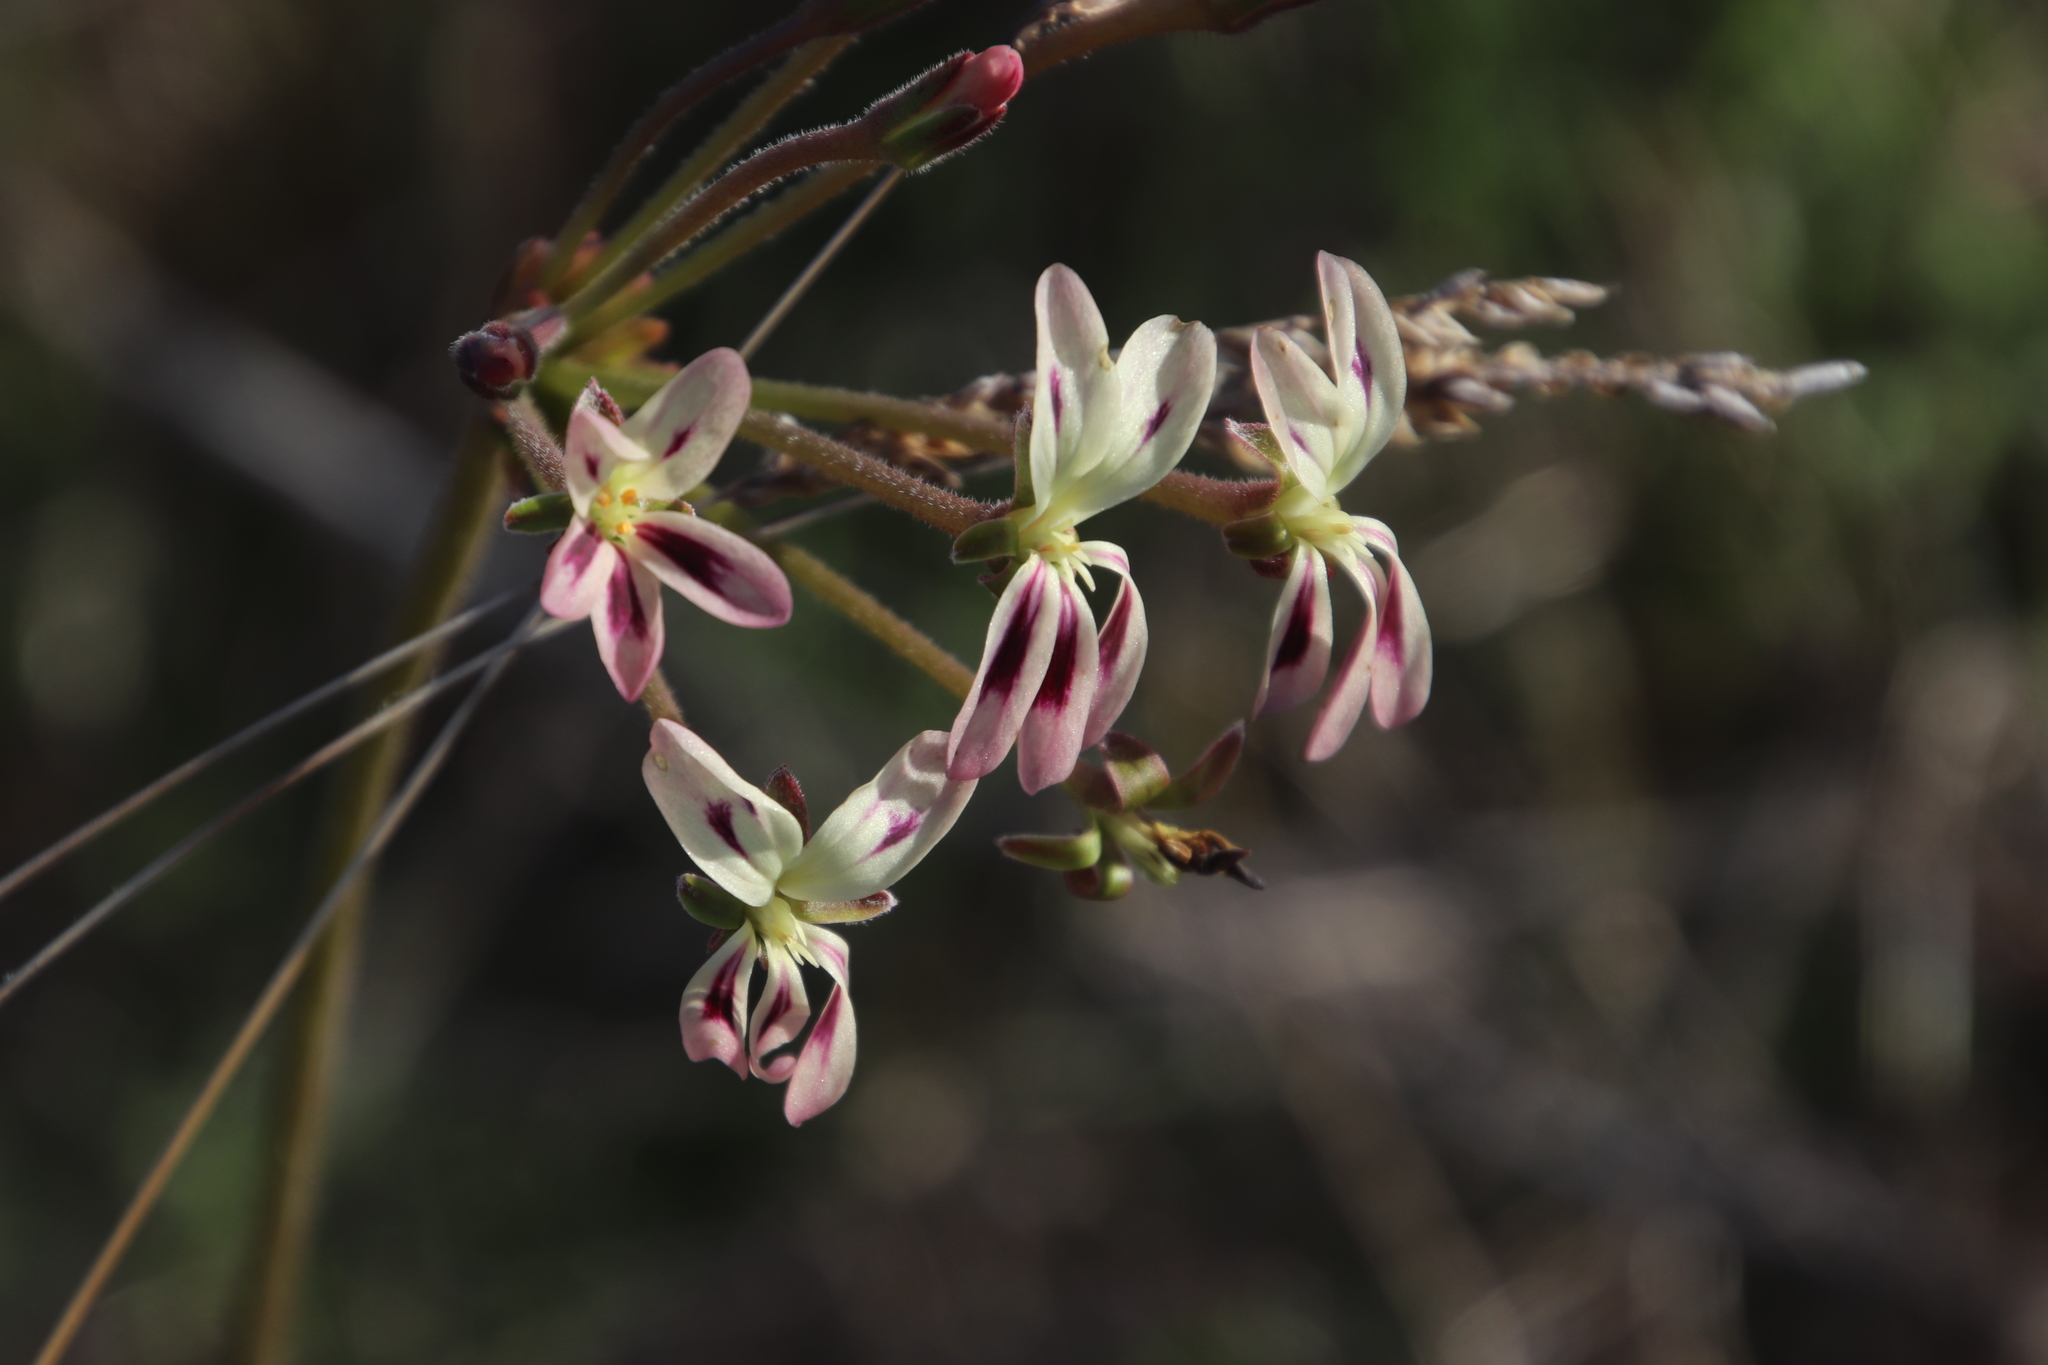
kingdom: Plantae
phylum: Tracheophyta
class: Magnoliopsida
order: Geraniales
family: Geraniaceae
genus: Pelargonium
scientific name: Pelargonium triste
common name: Night-scent pelargonium
